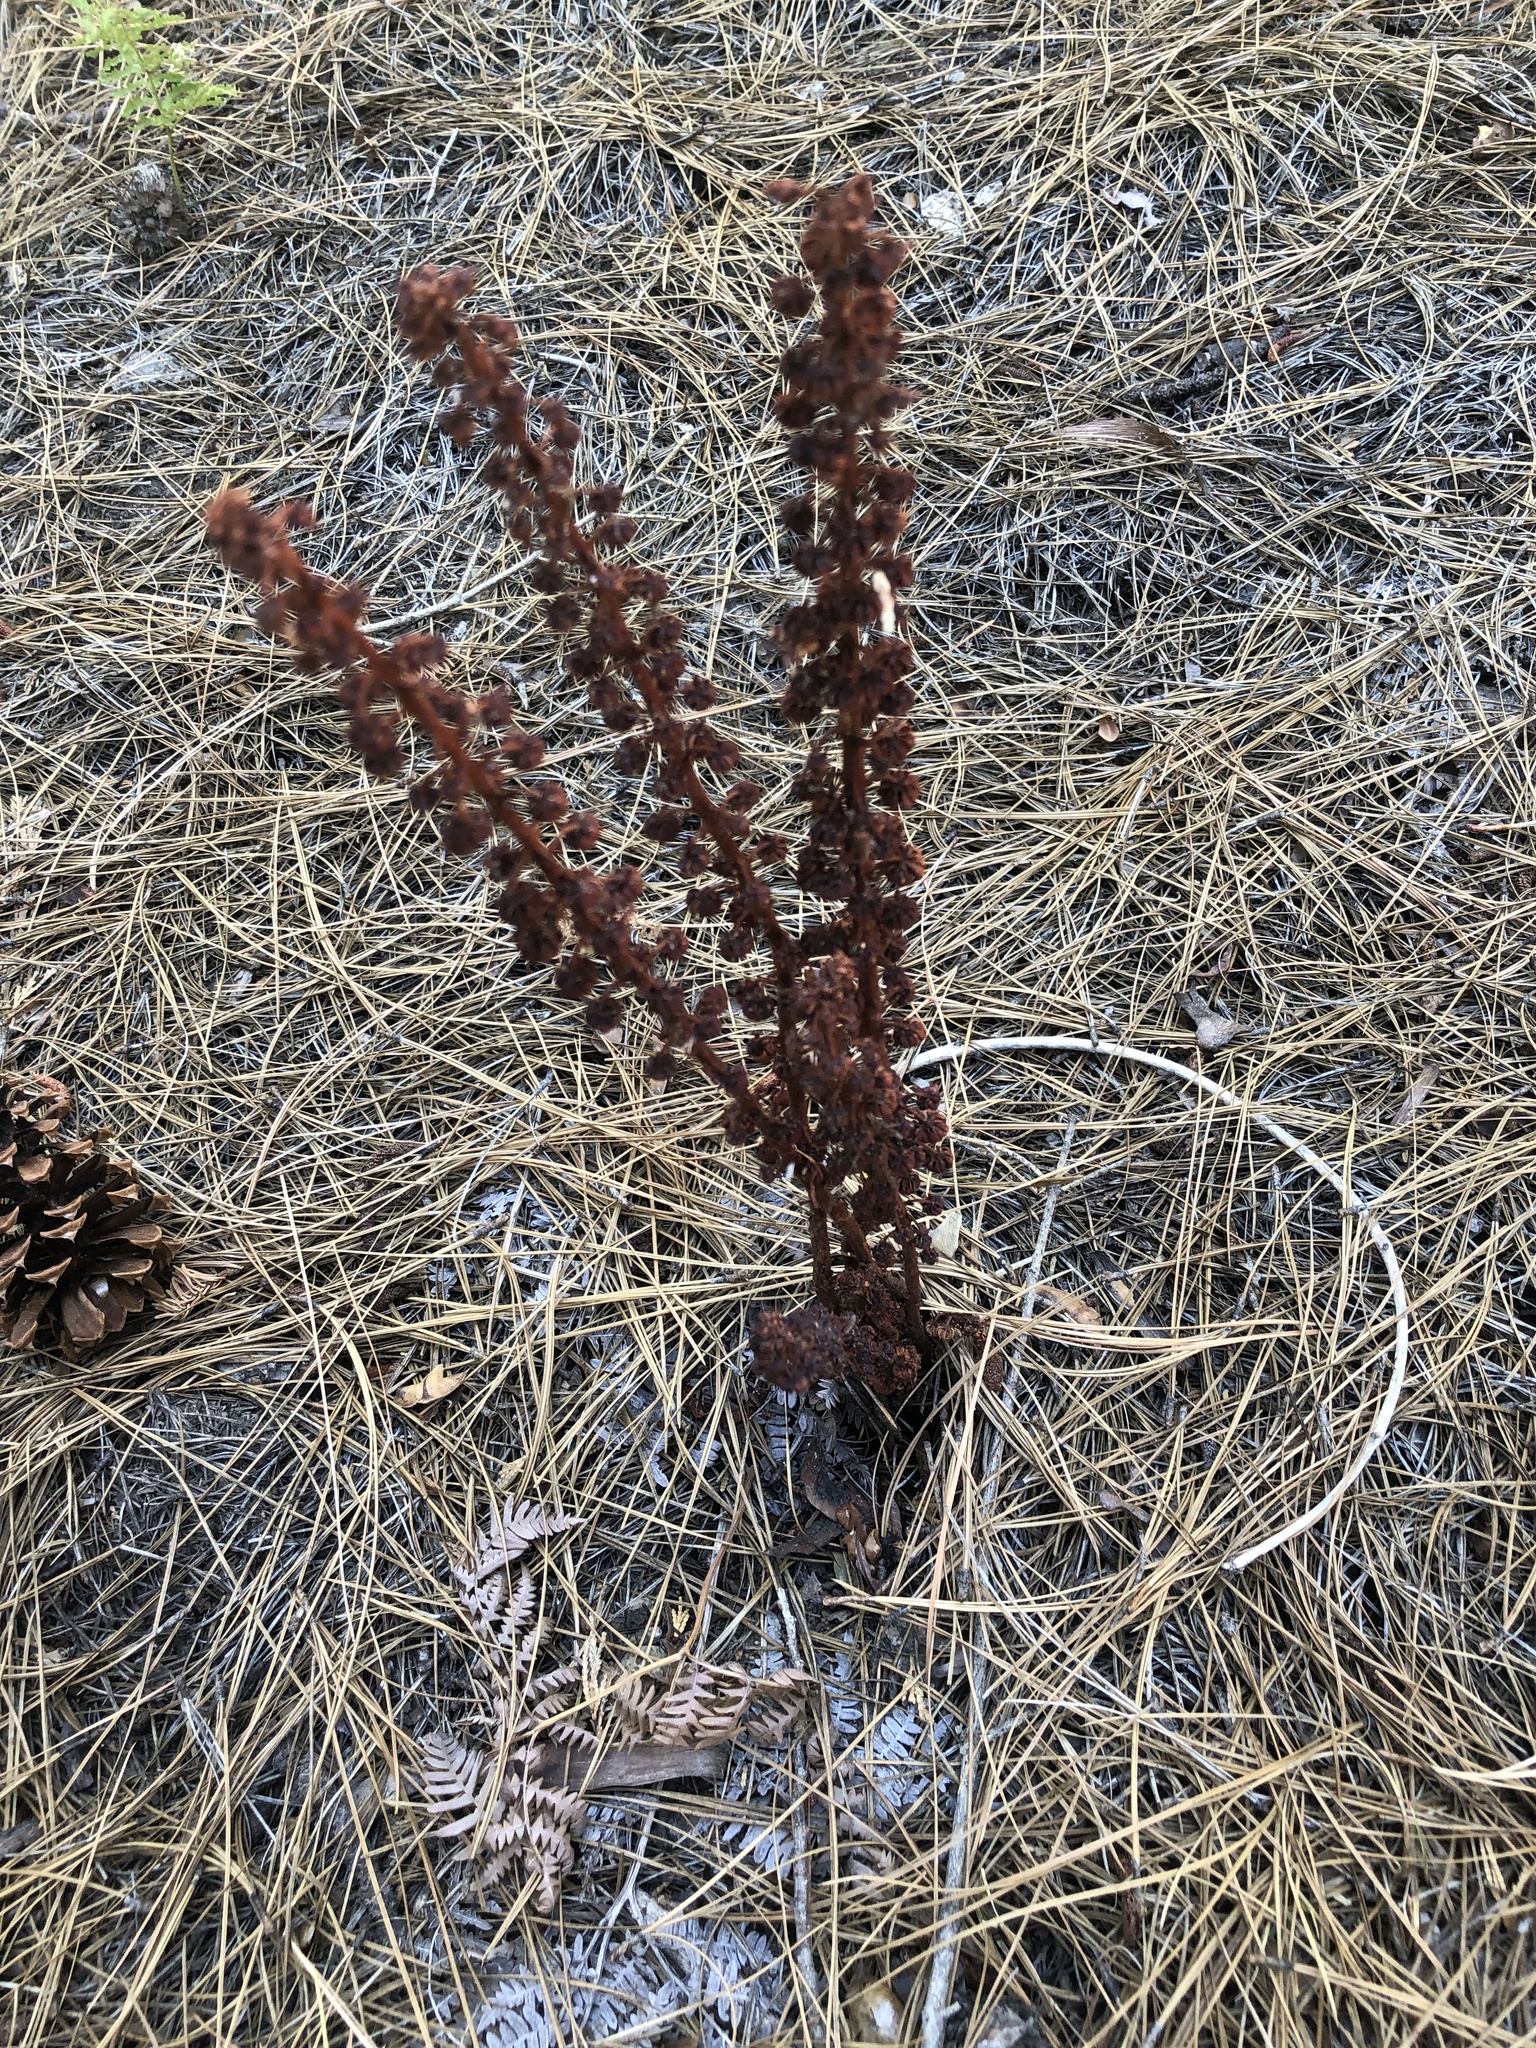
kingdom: Plantae
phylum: Tracheophyta
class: Magnoliopsida
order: Ericales
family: Ericaceae
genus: Pterospora
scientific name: Pterospora andromedea
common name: Giant bird's-nest
